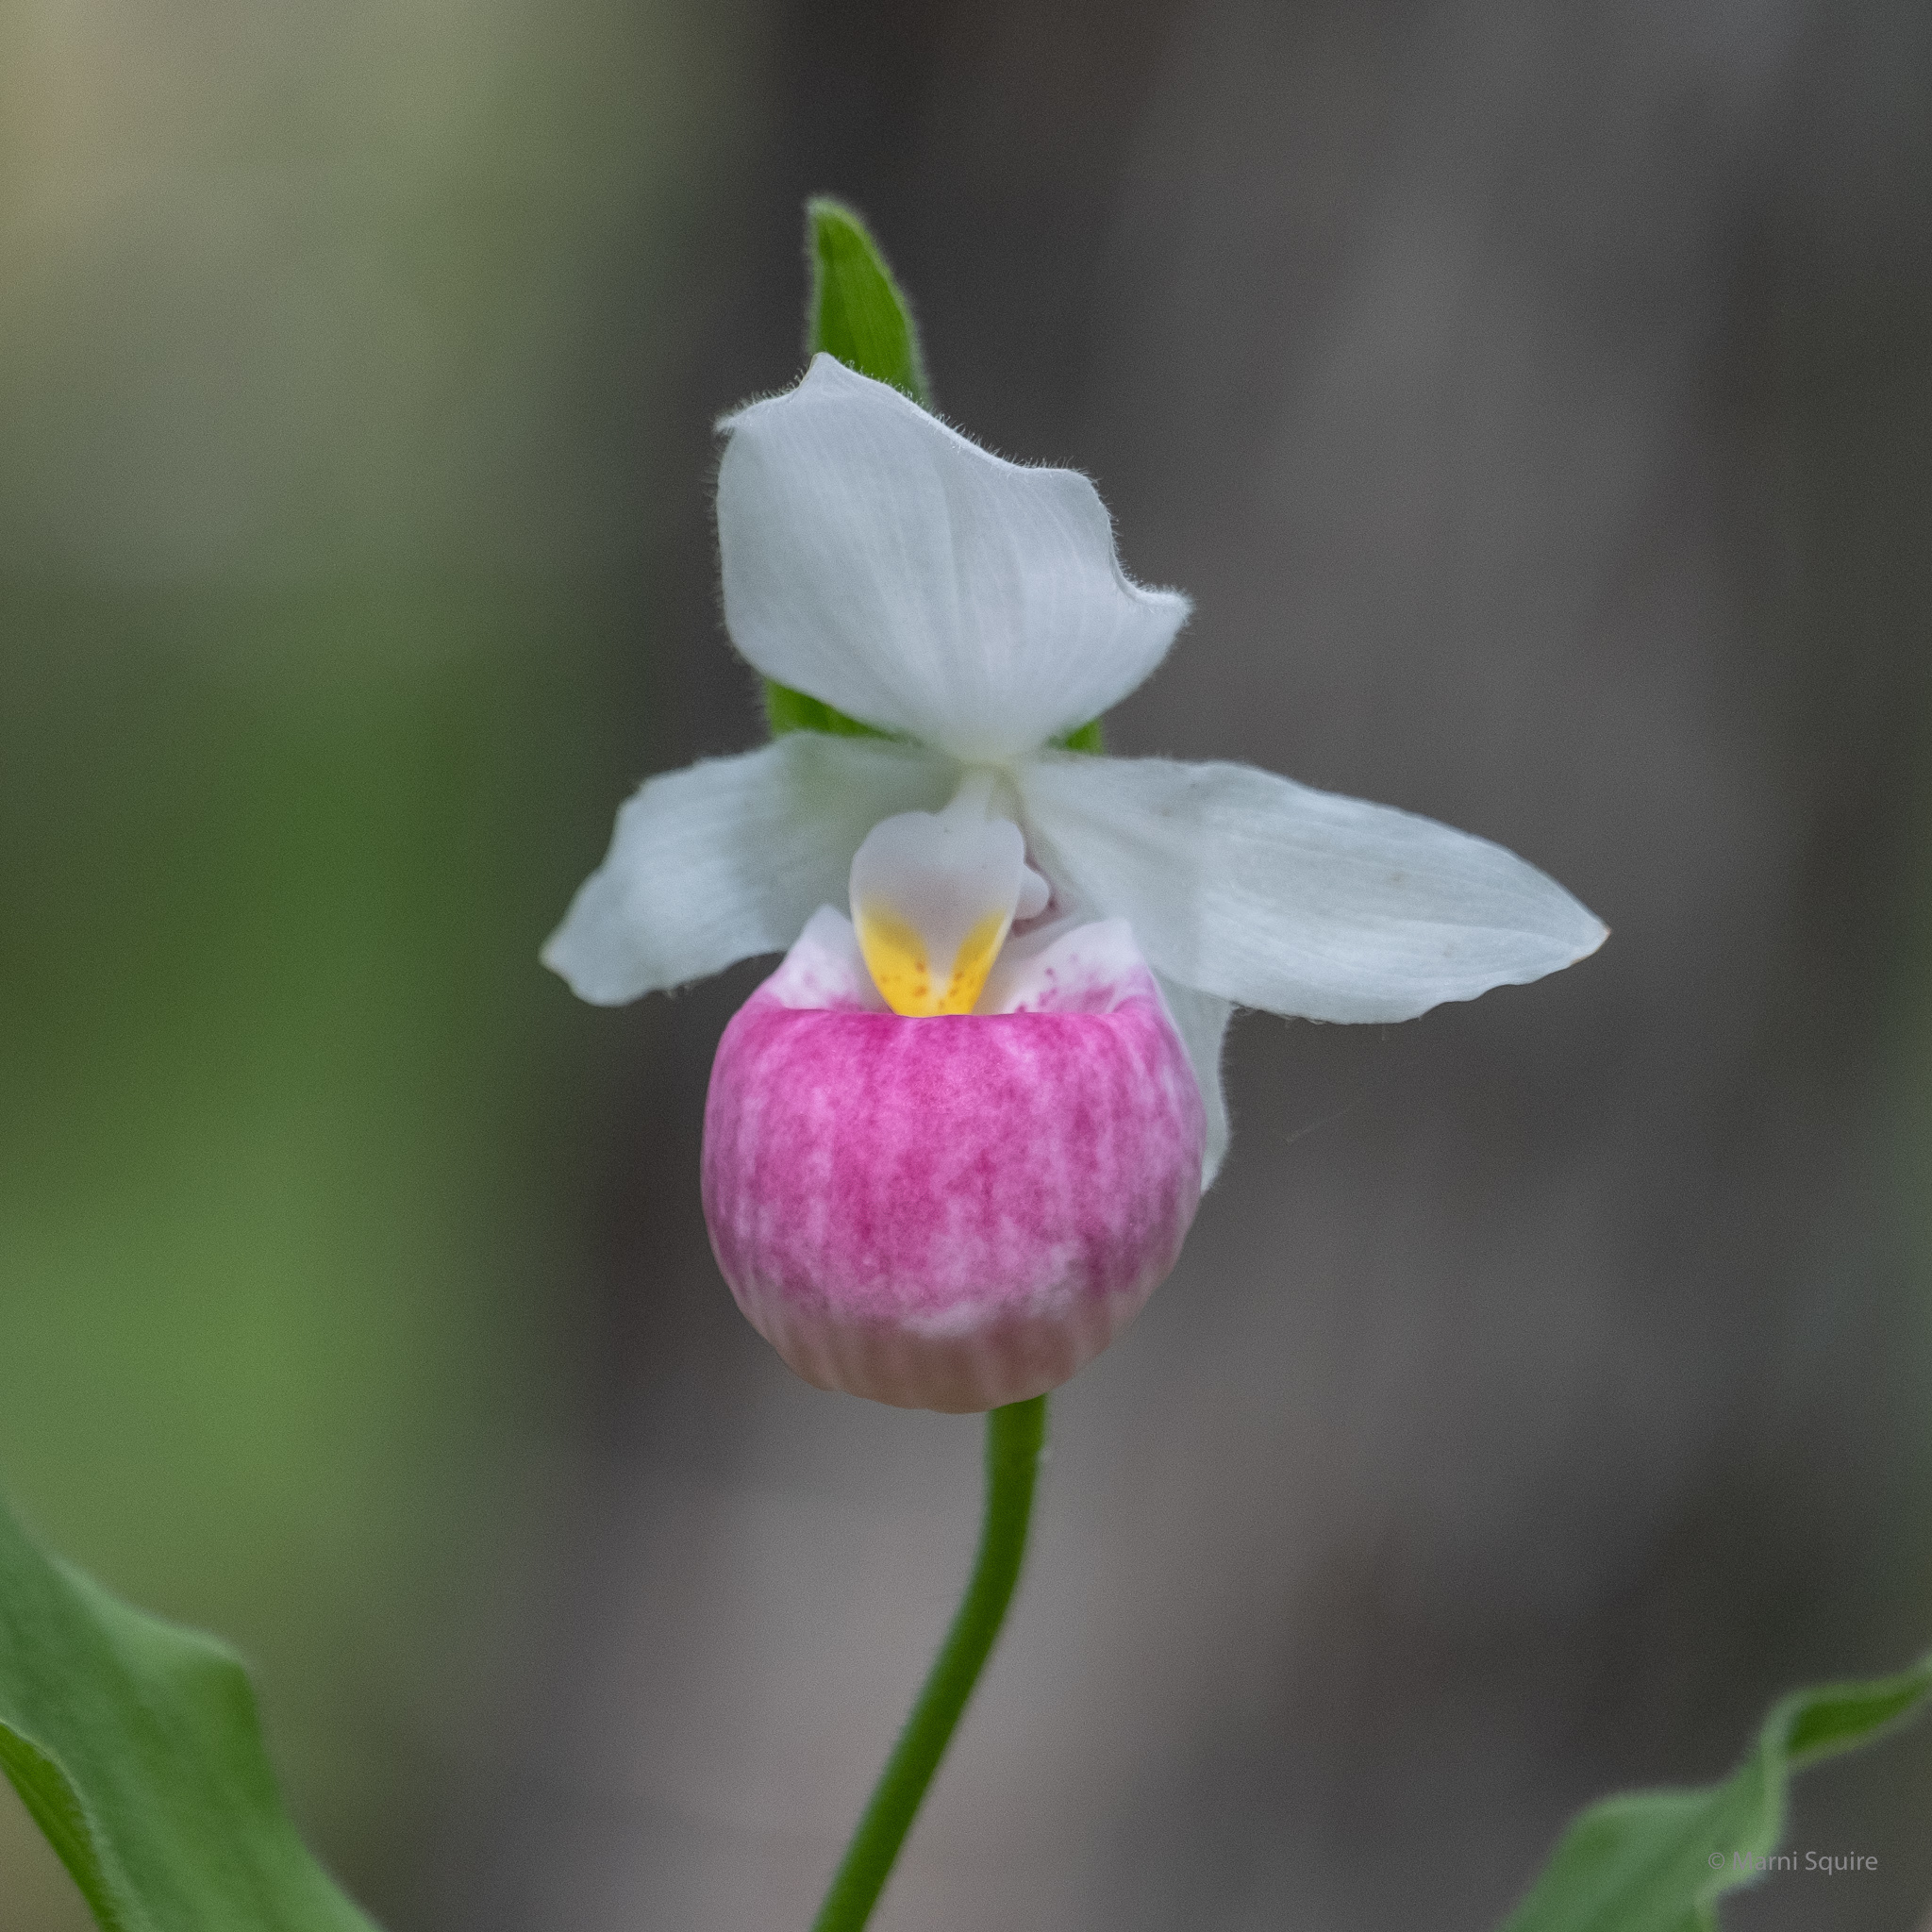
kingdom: Plantae
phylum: Tracheophyta
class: Liliopsida
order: Asparagales
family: Orchidaceae
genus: Cypripedium
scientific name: Cypripedium reginae
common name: Queen lady's-slipper
